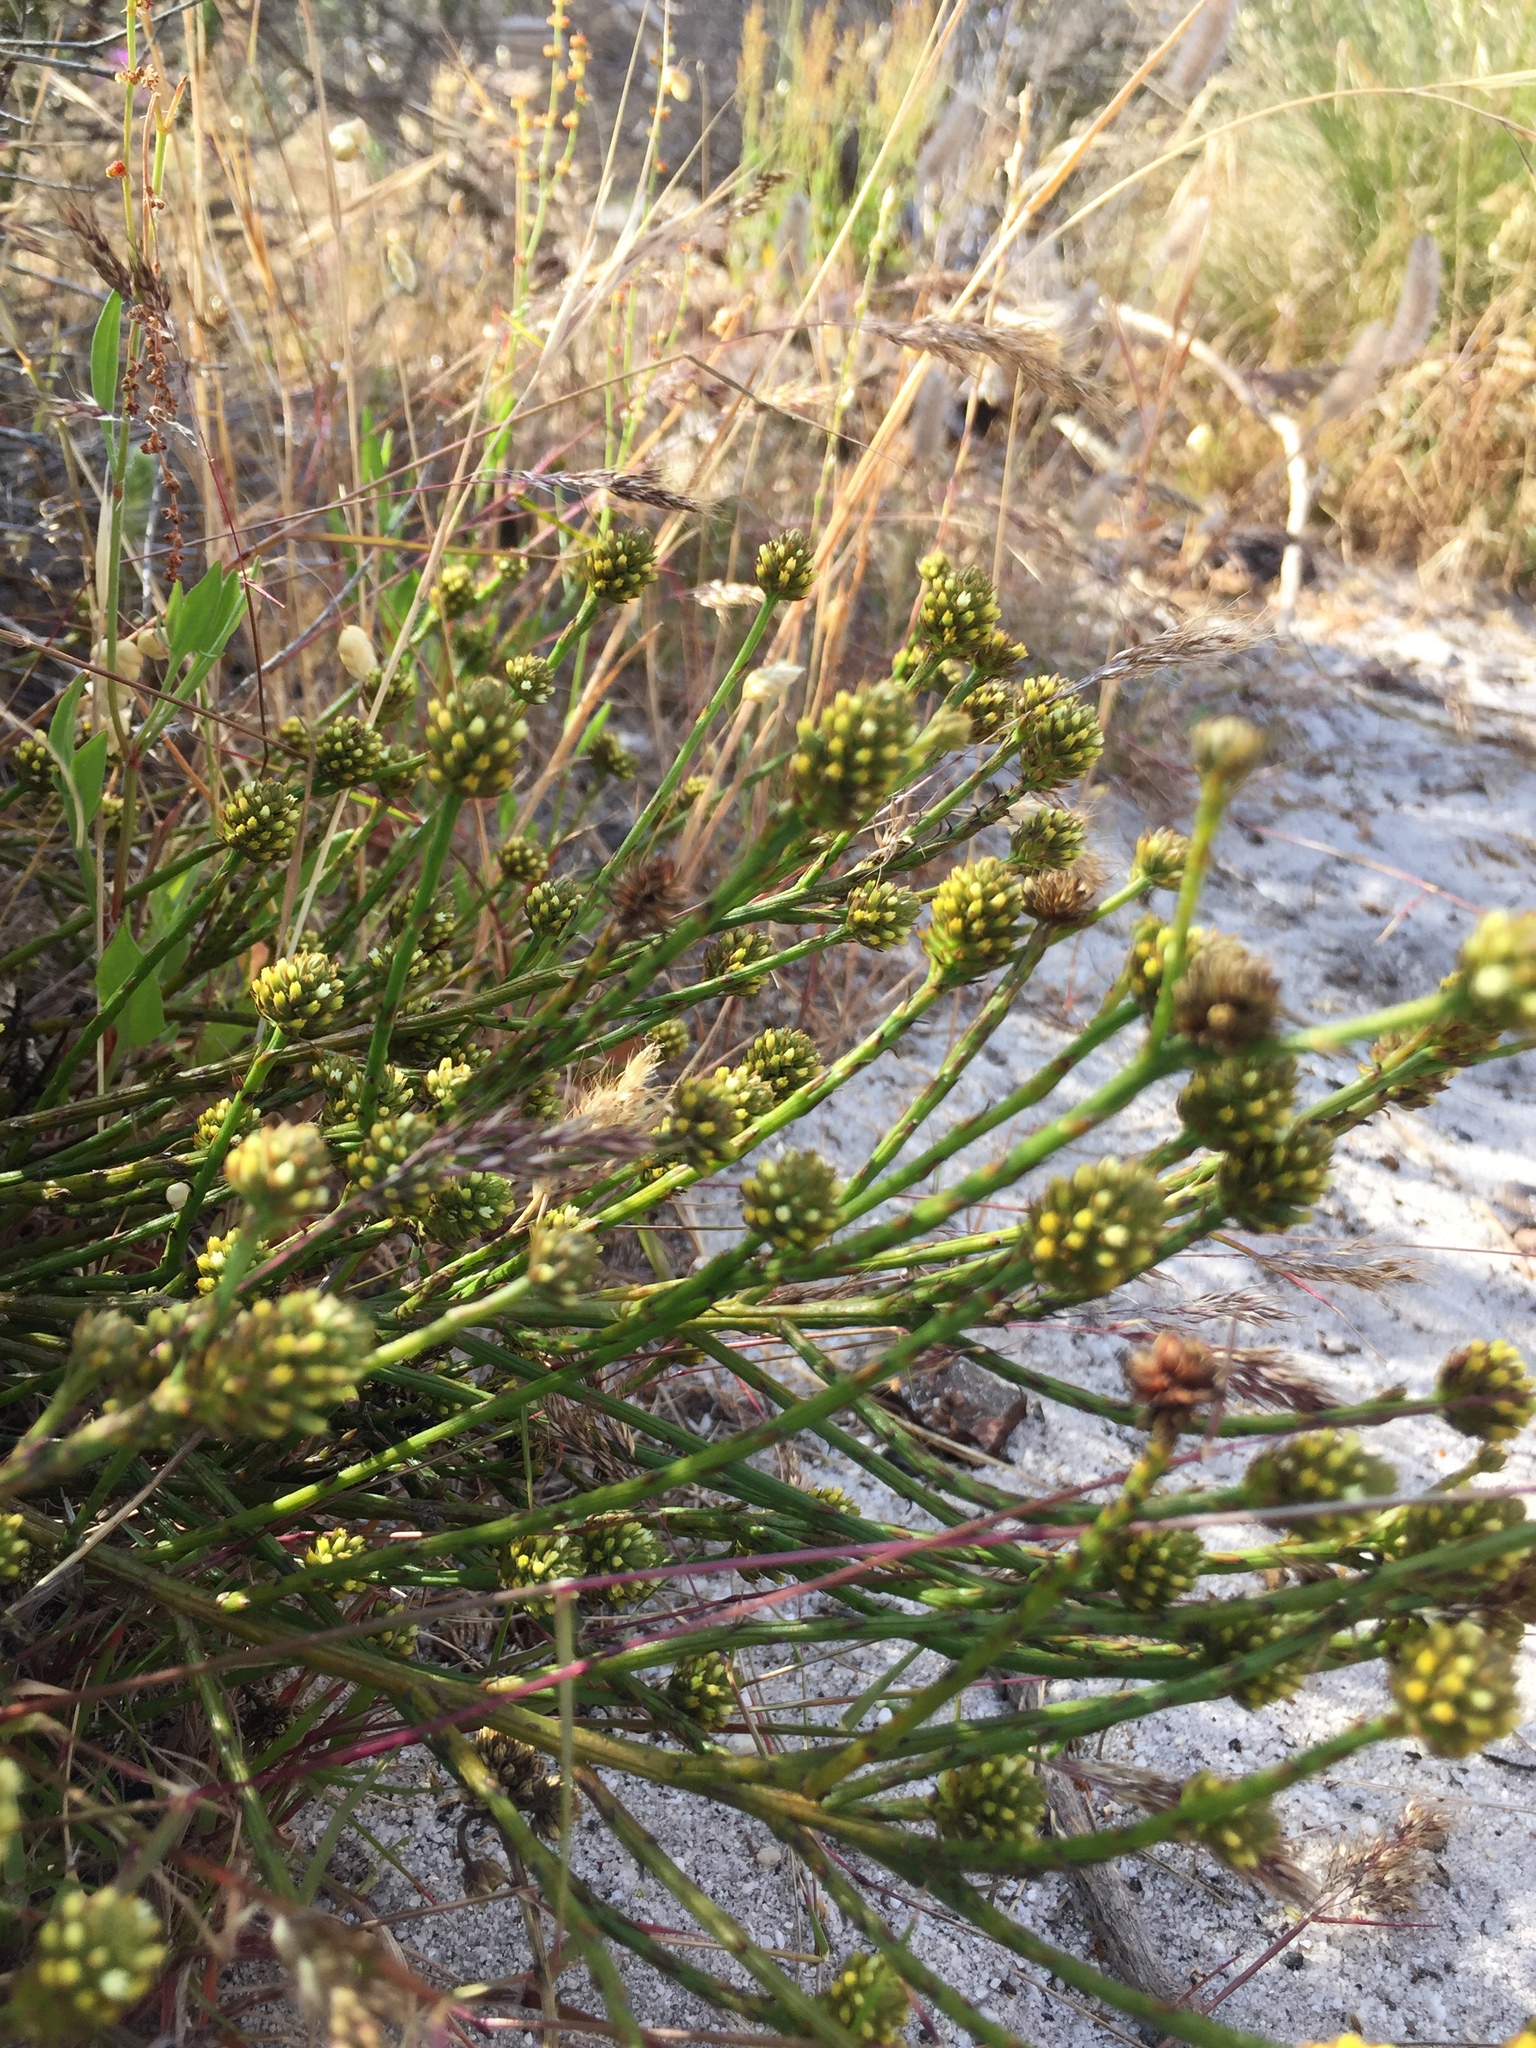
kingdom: Plantae
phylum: Tracheophyta
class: Magnoliopsida
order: Santalales
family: Thesiaceae
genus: Thesium
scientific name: Thesium aggregatum
